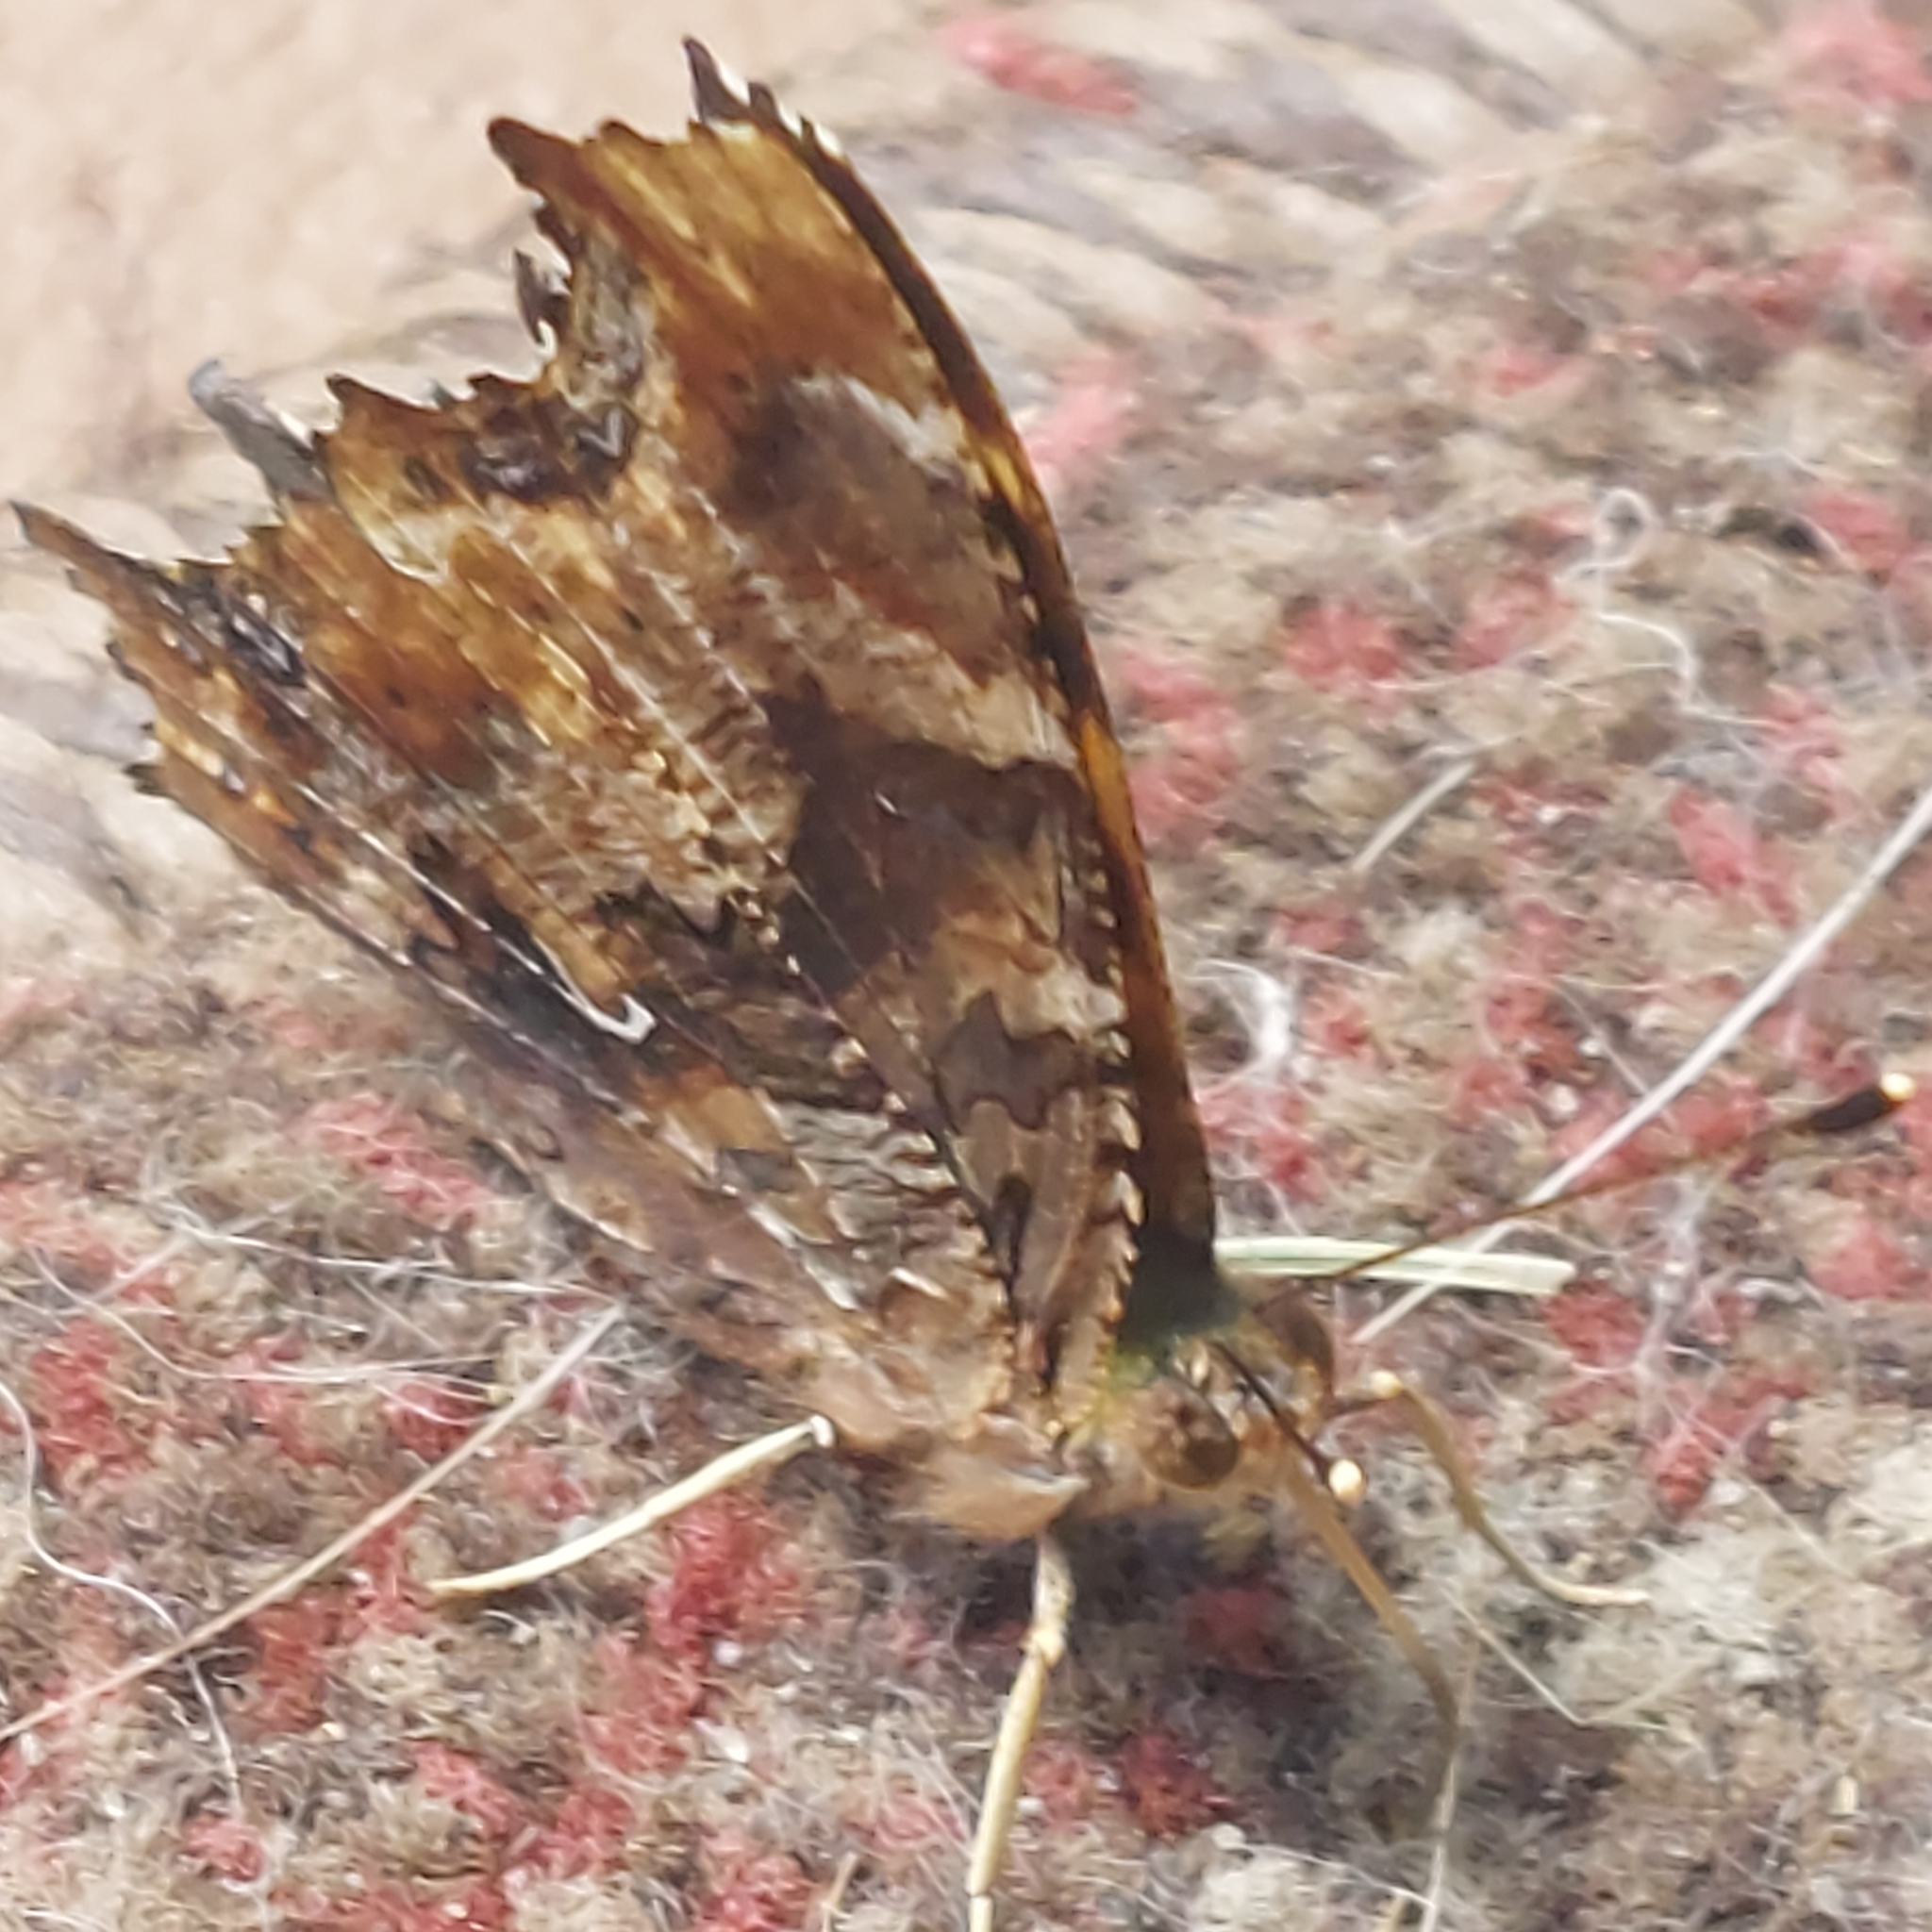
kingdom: Animalia
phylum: Arthropoda
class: Insecta
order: Lepidoptera
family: Nymphalidae
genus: Polygonia
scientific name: Polygonia comma
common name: Eastern comma
